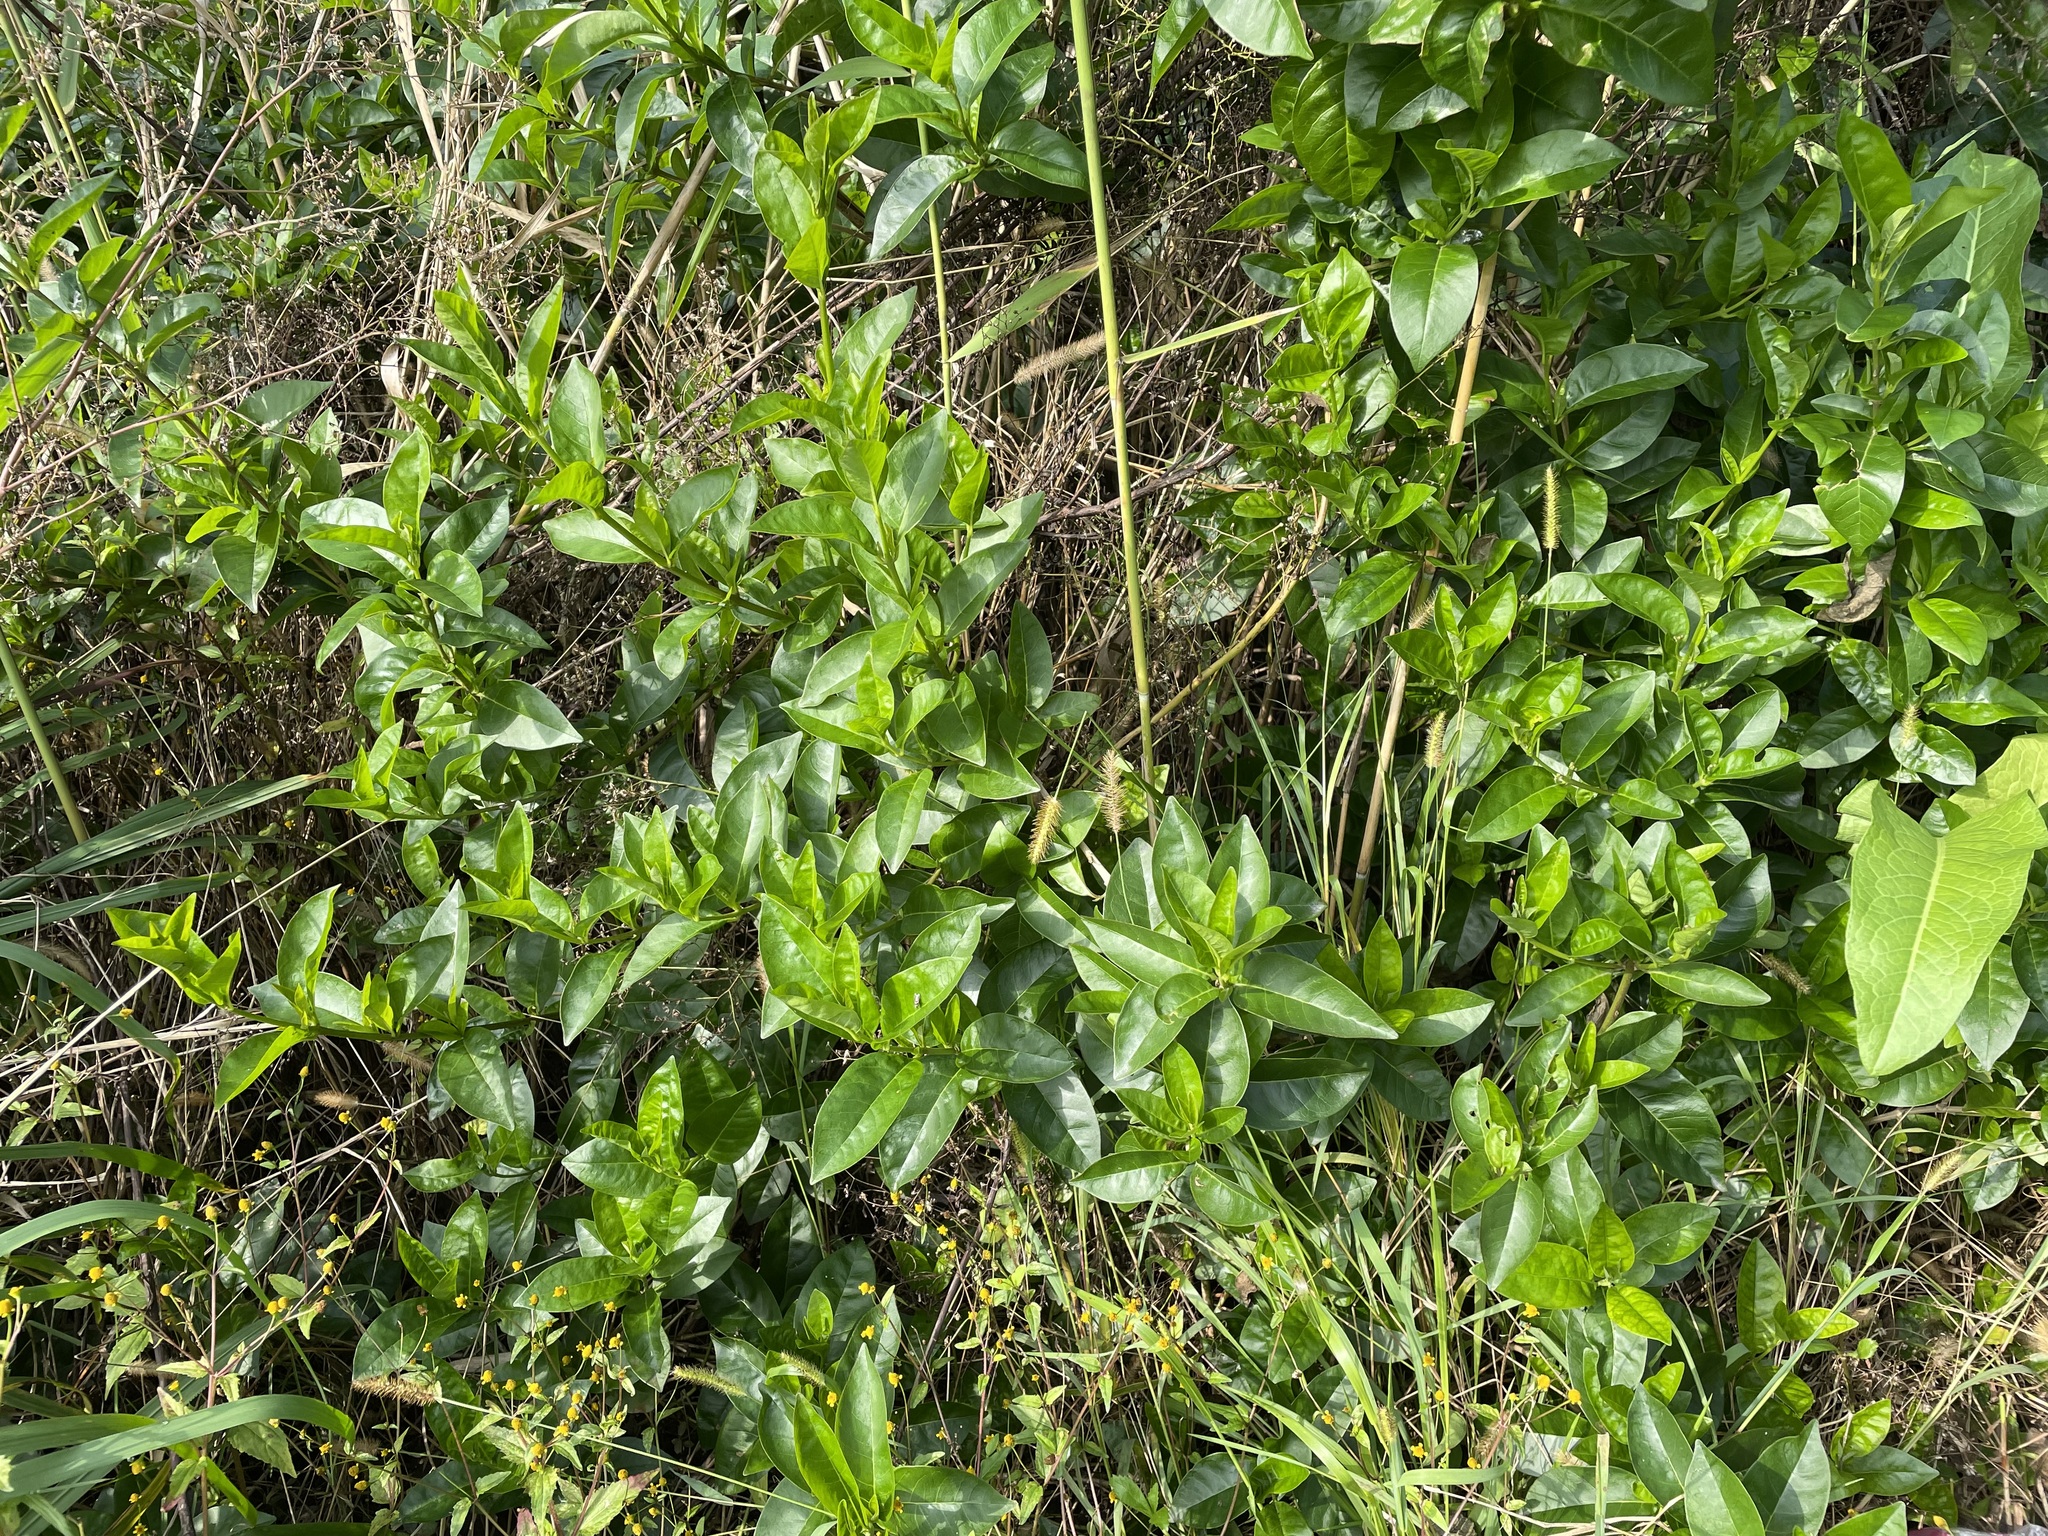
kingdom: Plantae
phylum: Tracheophyta
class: Magnoliopsida
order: Lamiales
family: Lamiaceae
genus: Volkameria
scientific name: Volkameria inermis
